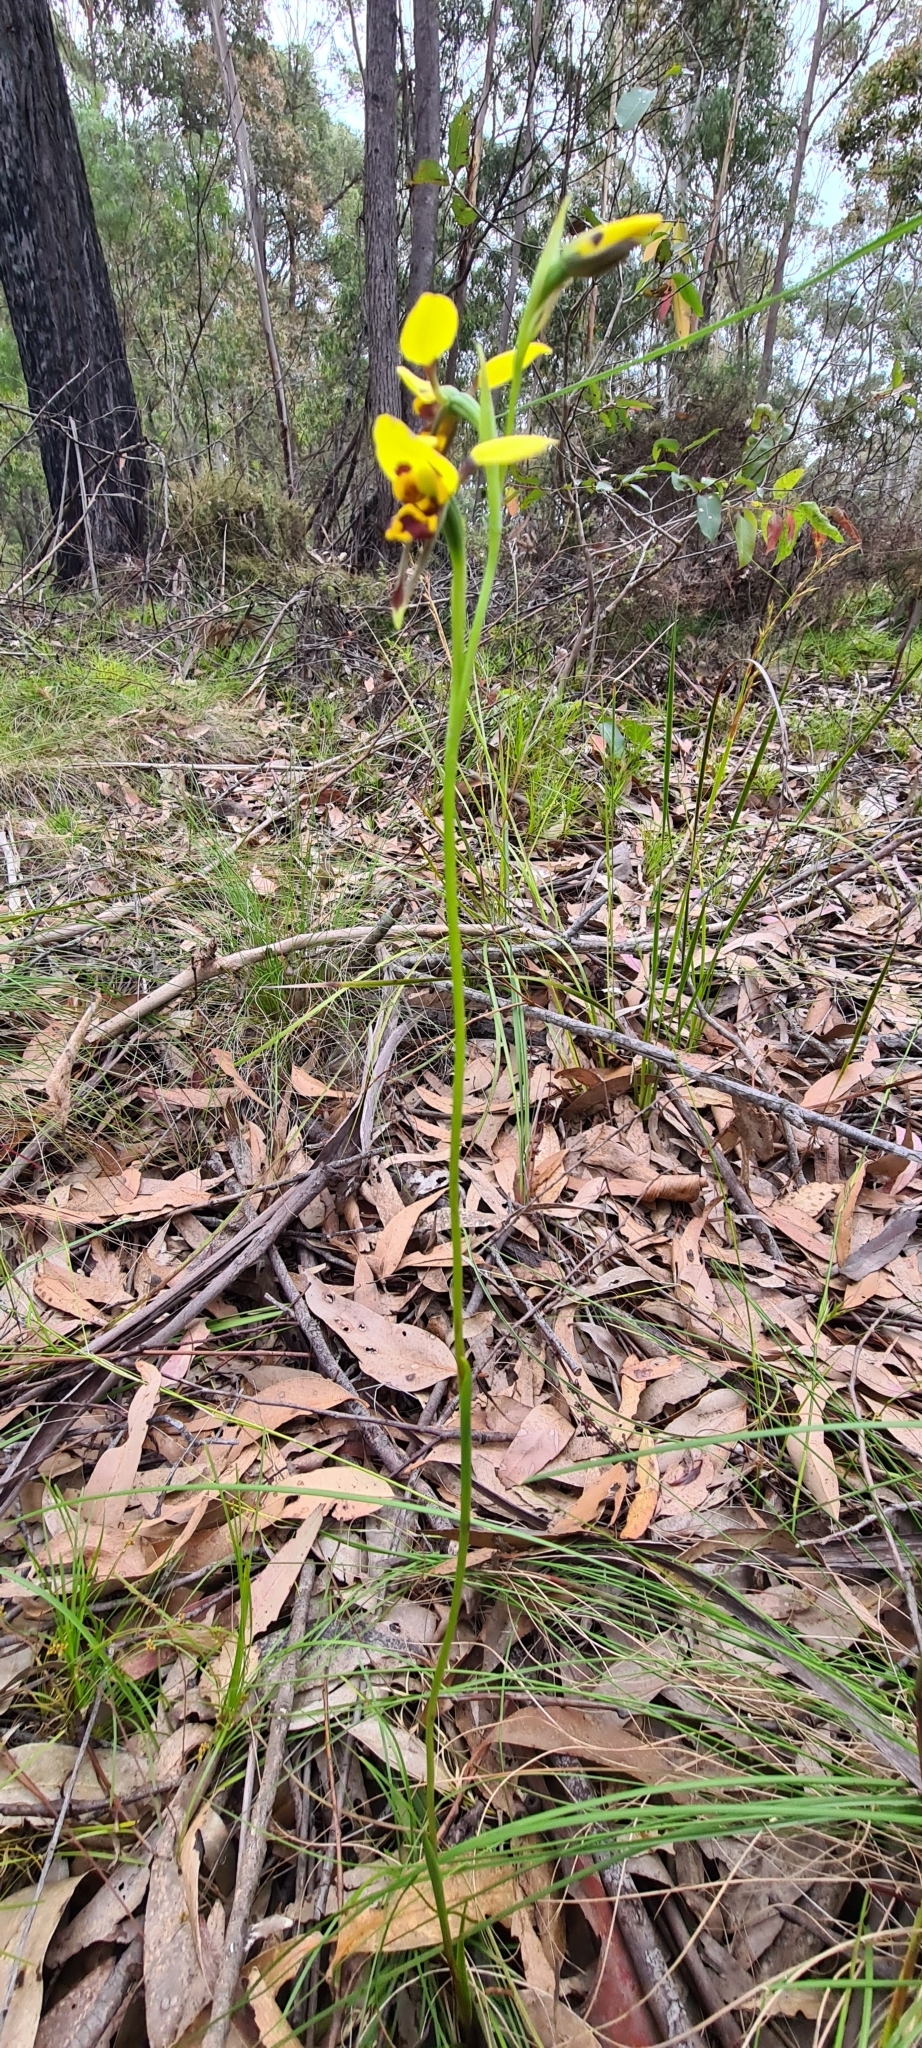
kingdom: Plantae
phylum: Tracheophyta
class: Liliopsida
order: Asparagales
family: Orchidaceae
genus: Diuris
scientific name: Diuris sulphurea
